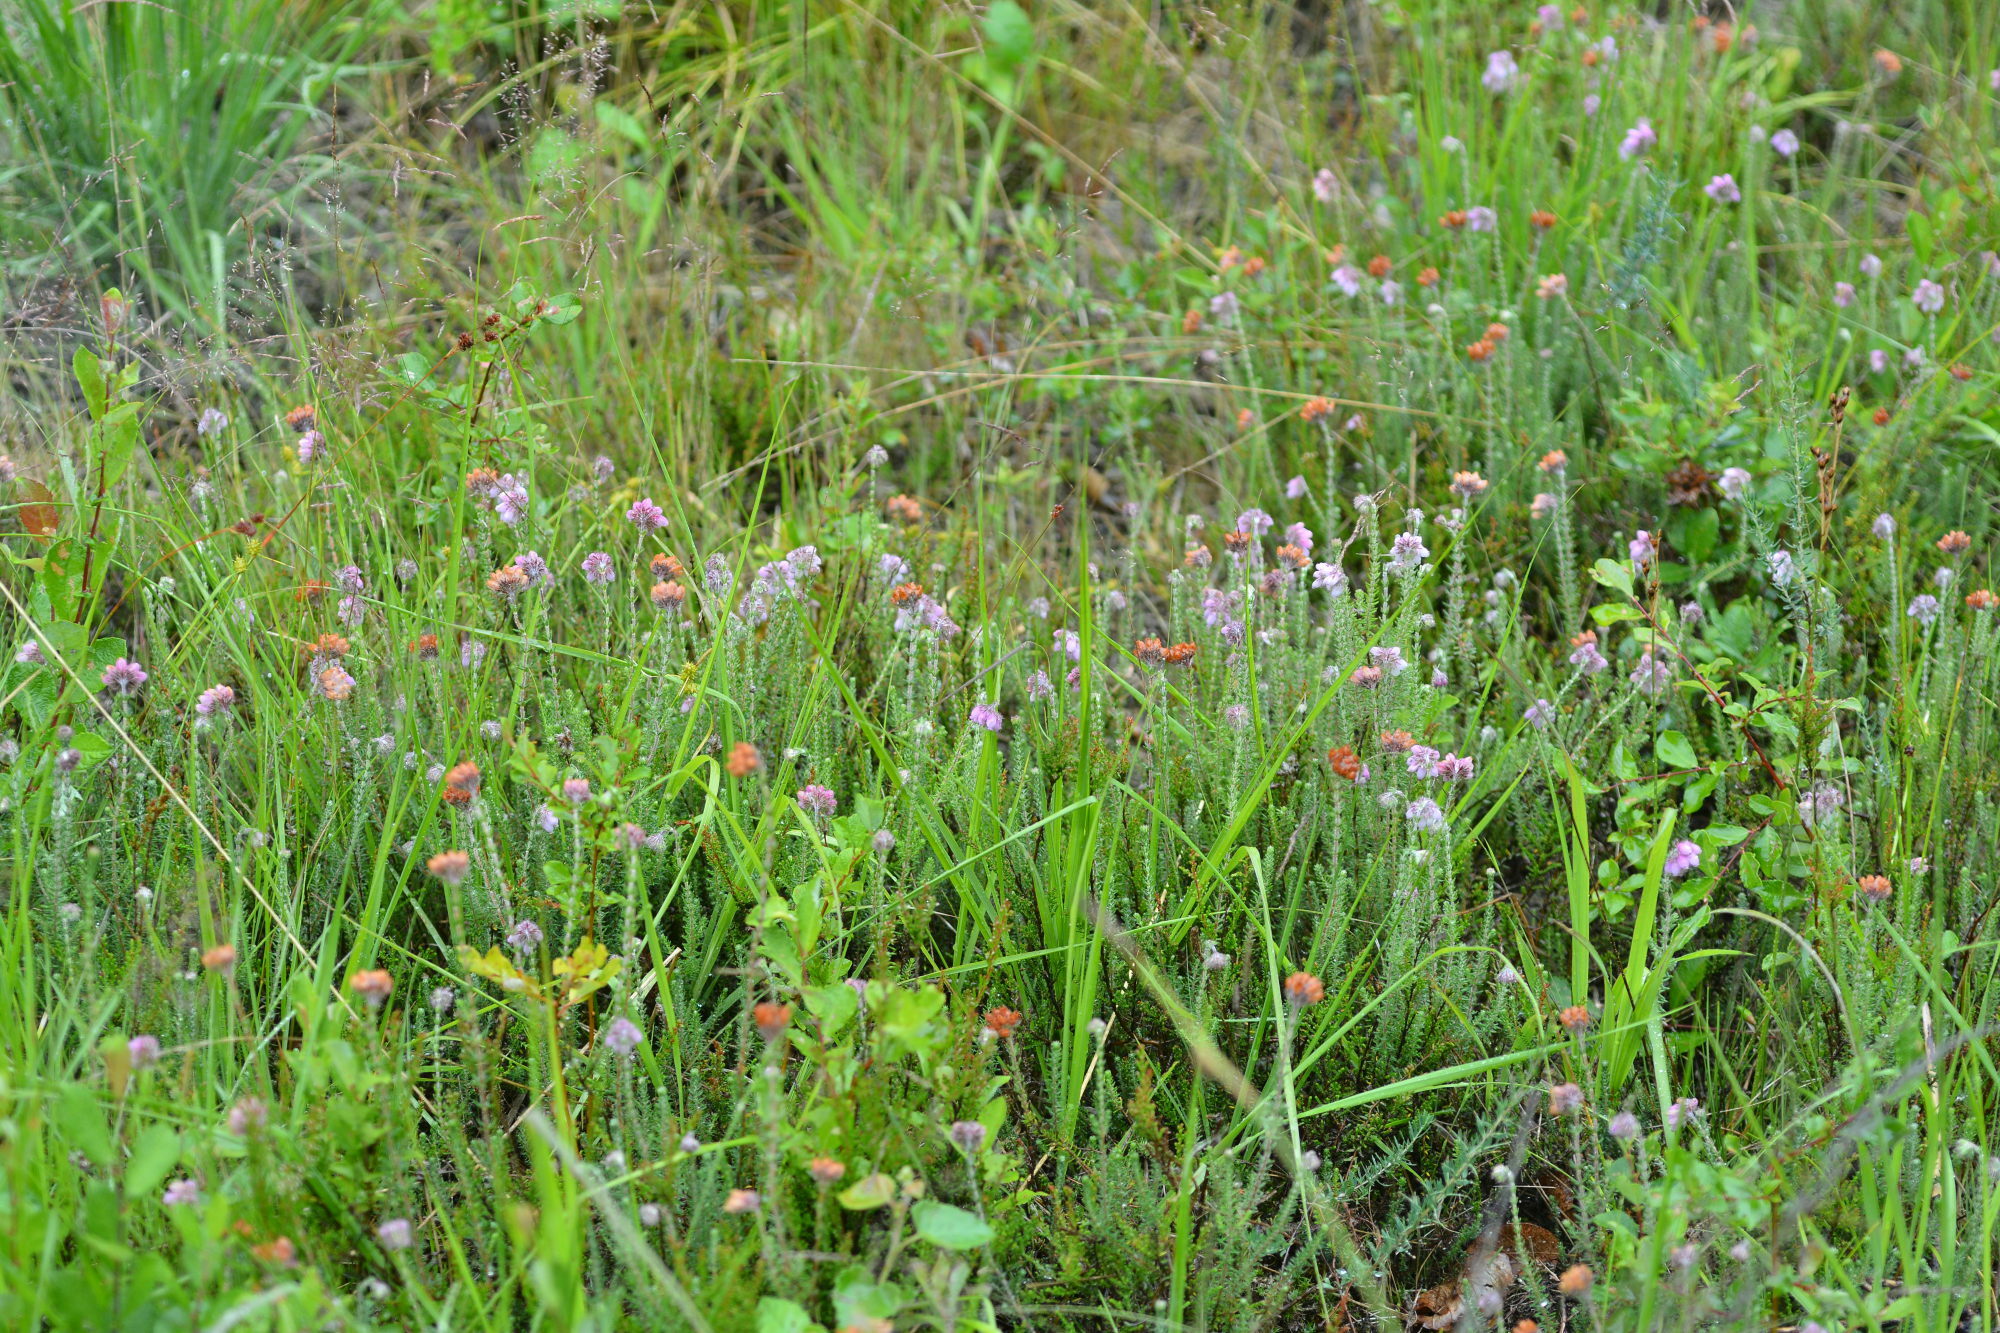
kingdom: Plantae
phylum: Tracheophyta
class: Magnoliopsida
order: Ericales
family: Ericaceae
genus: Erica
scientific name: Erica tetralix
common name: Cross-leaved heath
